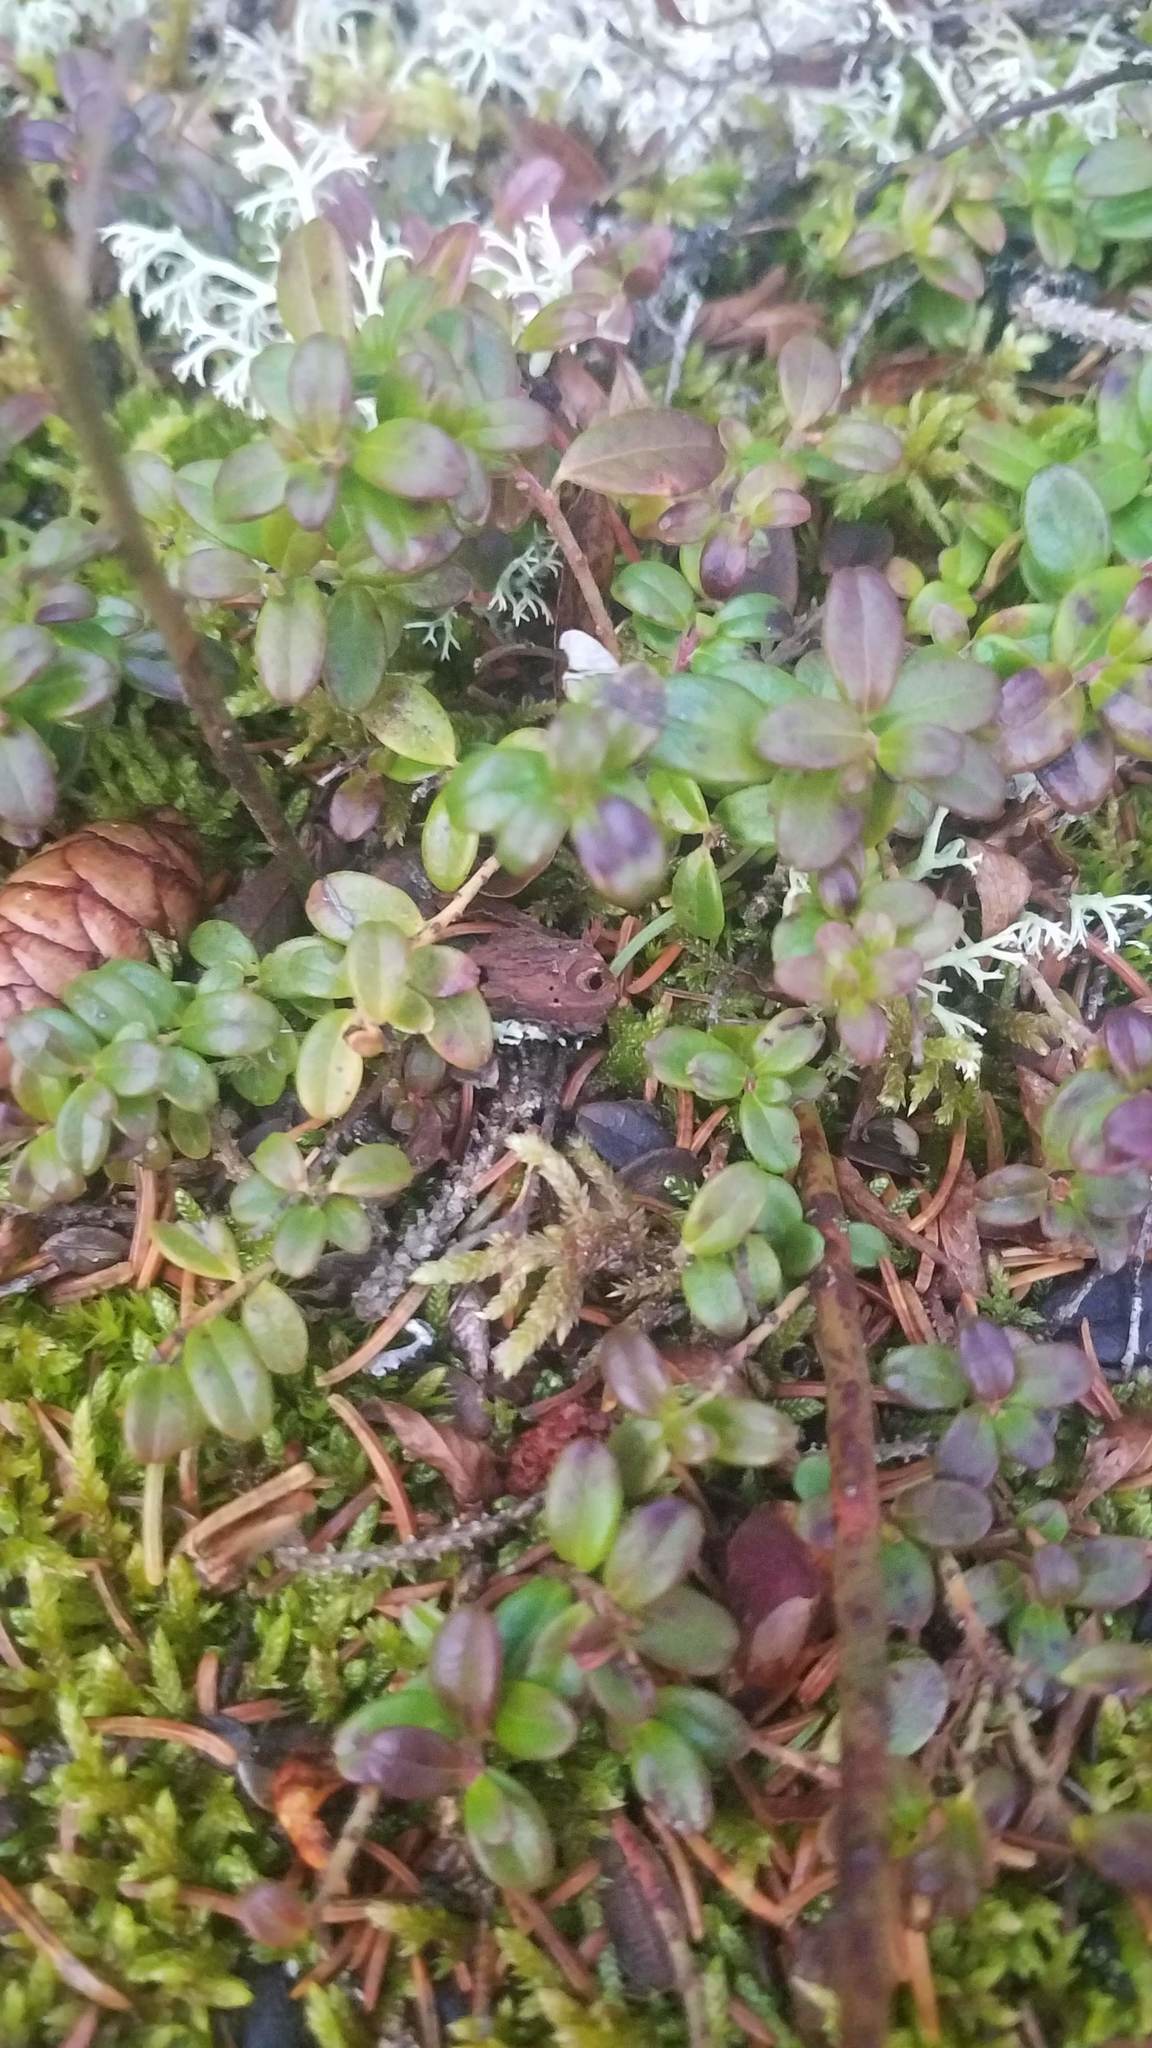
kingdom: Plantae
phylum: Tracheophyta
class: Magnoliopsida
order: Ericales
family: Ericaceae
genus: Vaccinium
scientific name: Vaccinium vitis-idaea
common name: Cowberry
